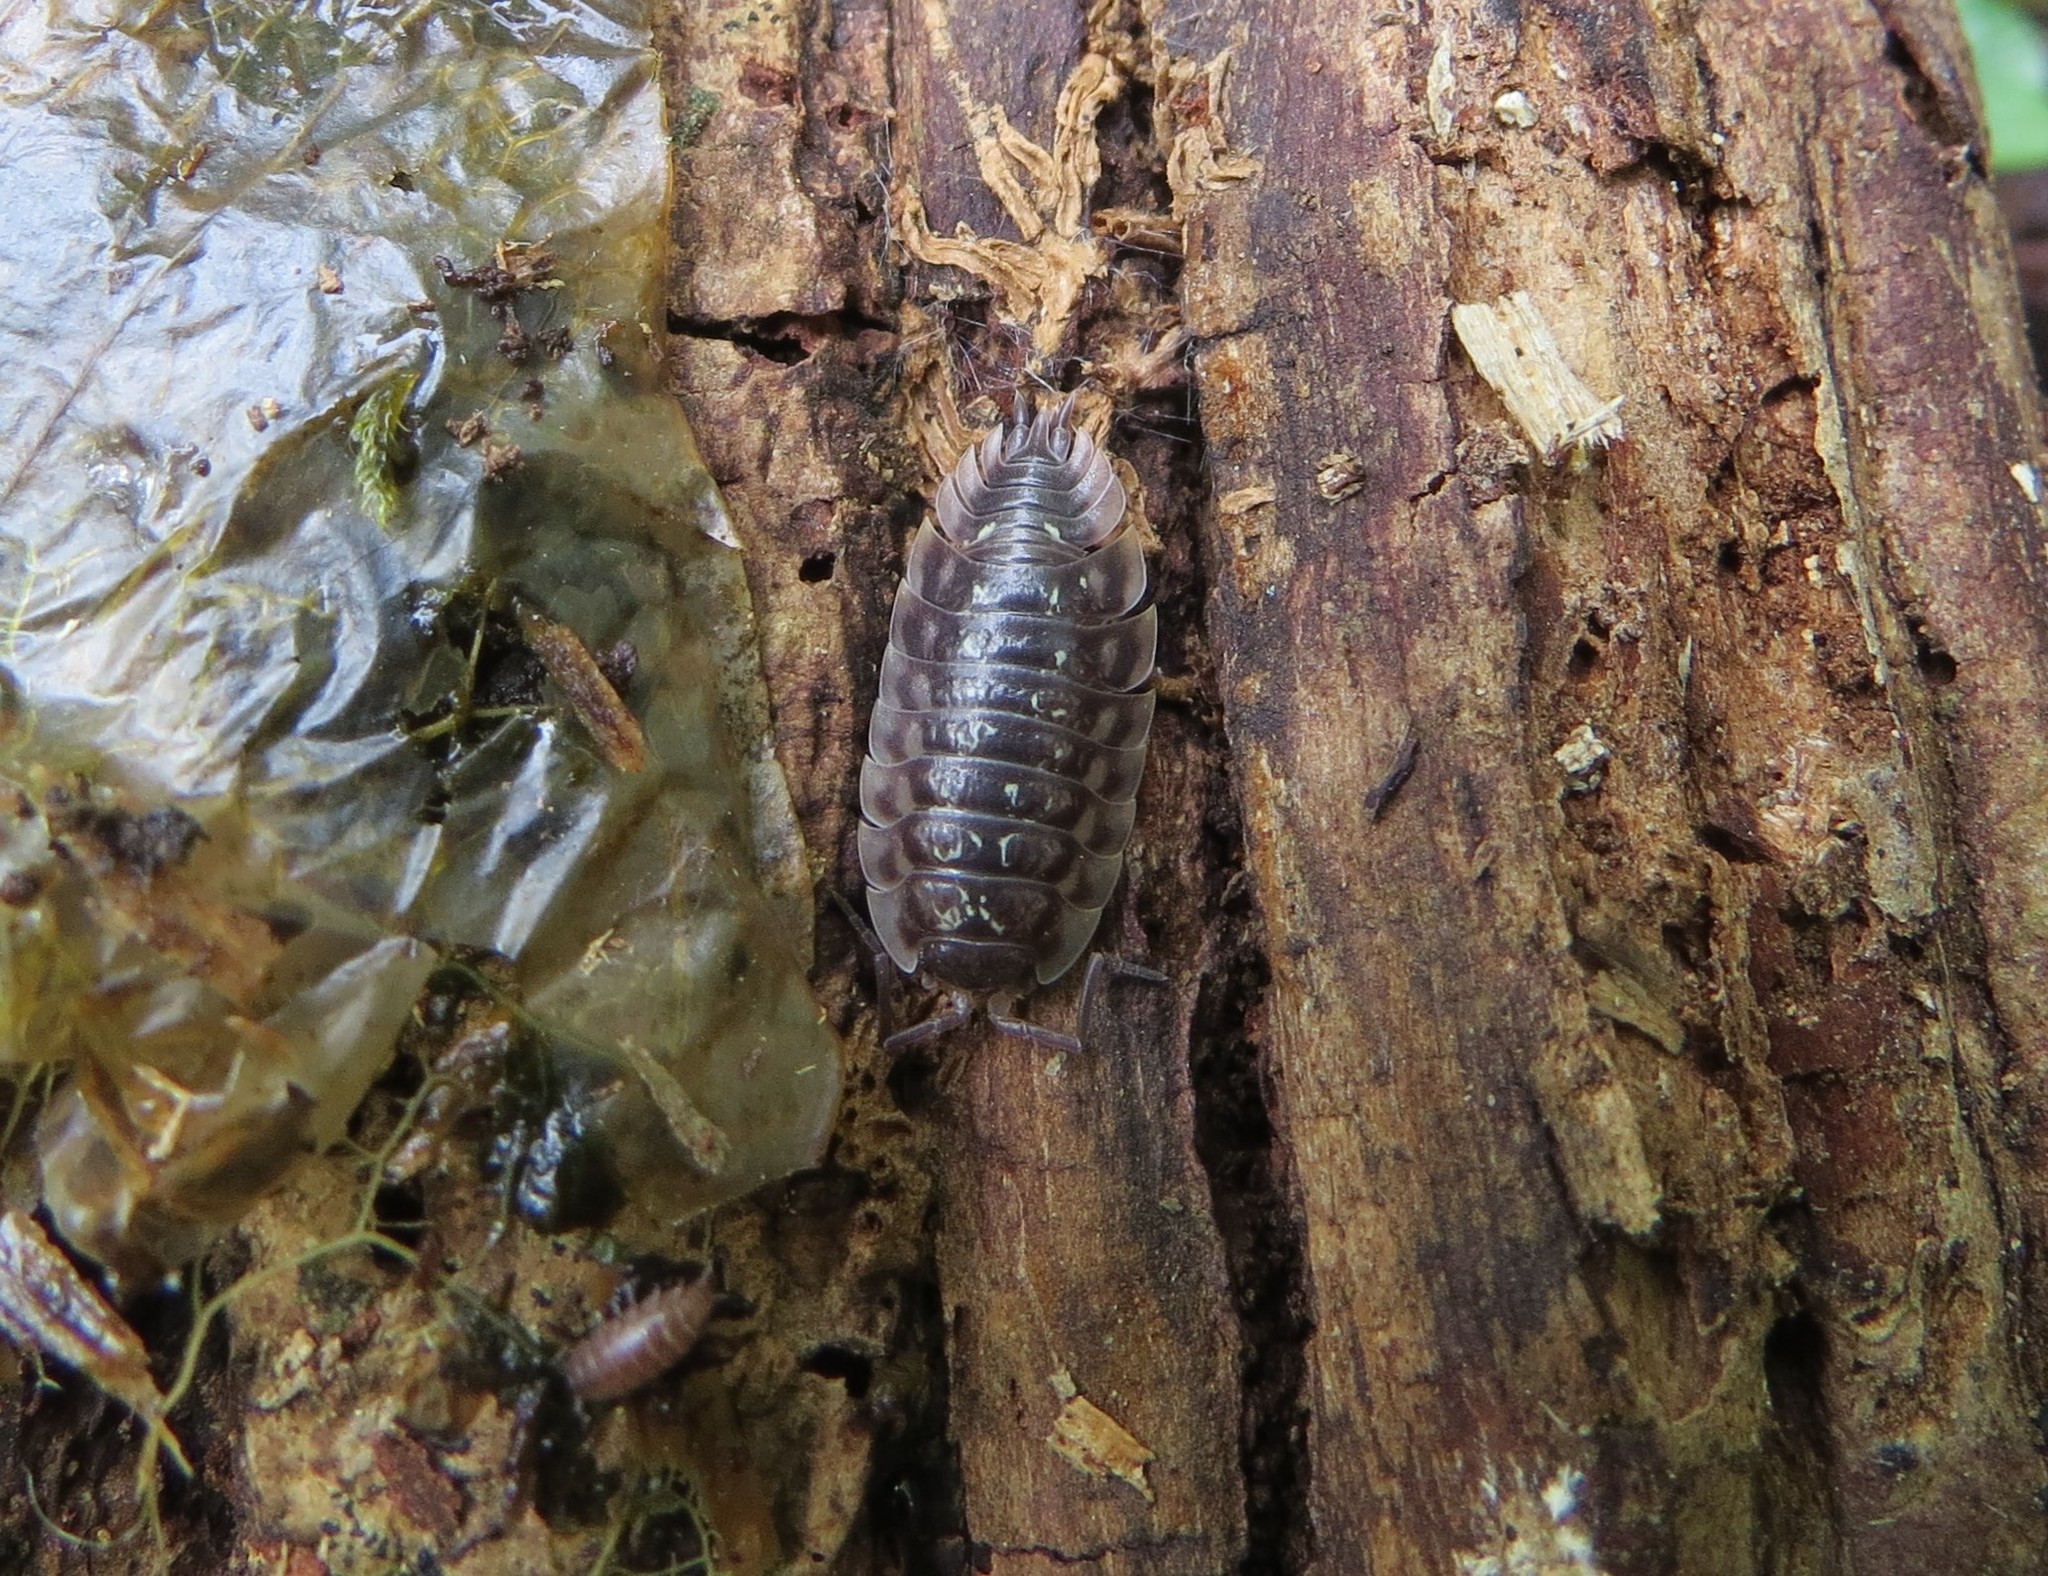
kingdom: Animalia
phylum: Arthropoda
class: Malacostraca
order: Isopoda
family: Oniscidae
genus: Oniscus
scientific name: Oniscus asellus
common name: Common shiny woodlouse
